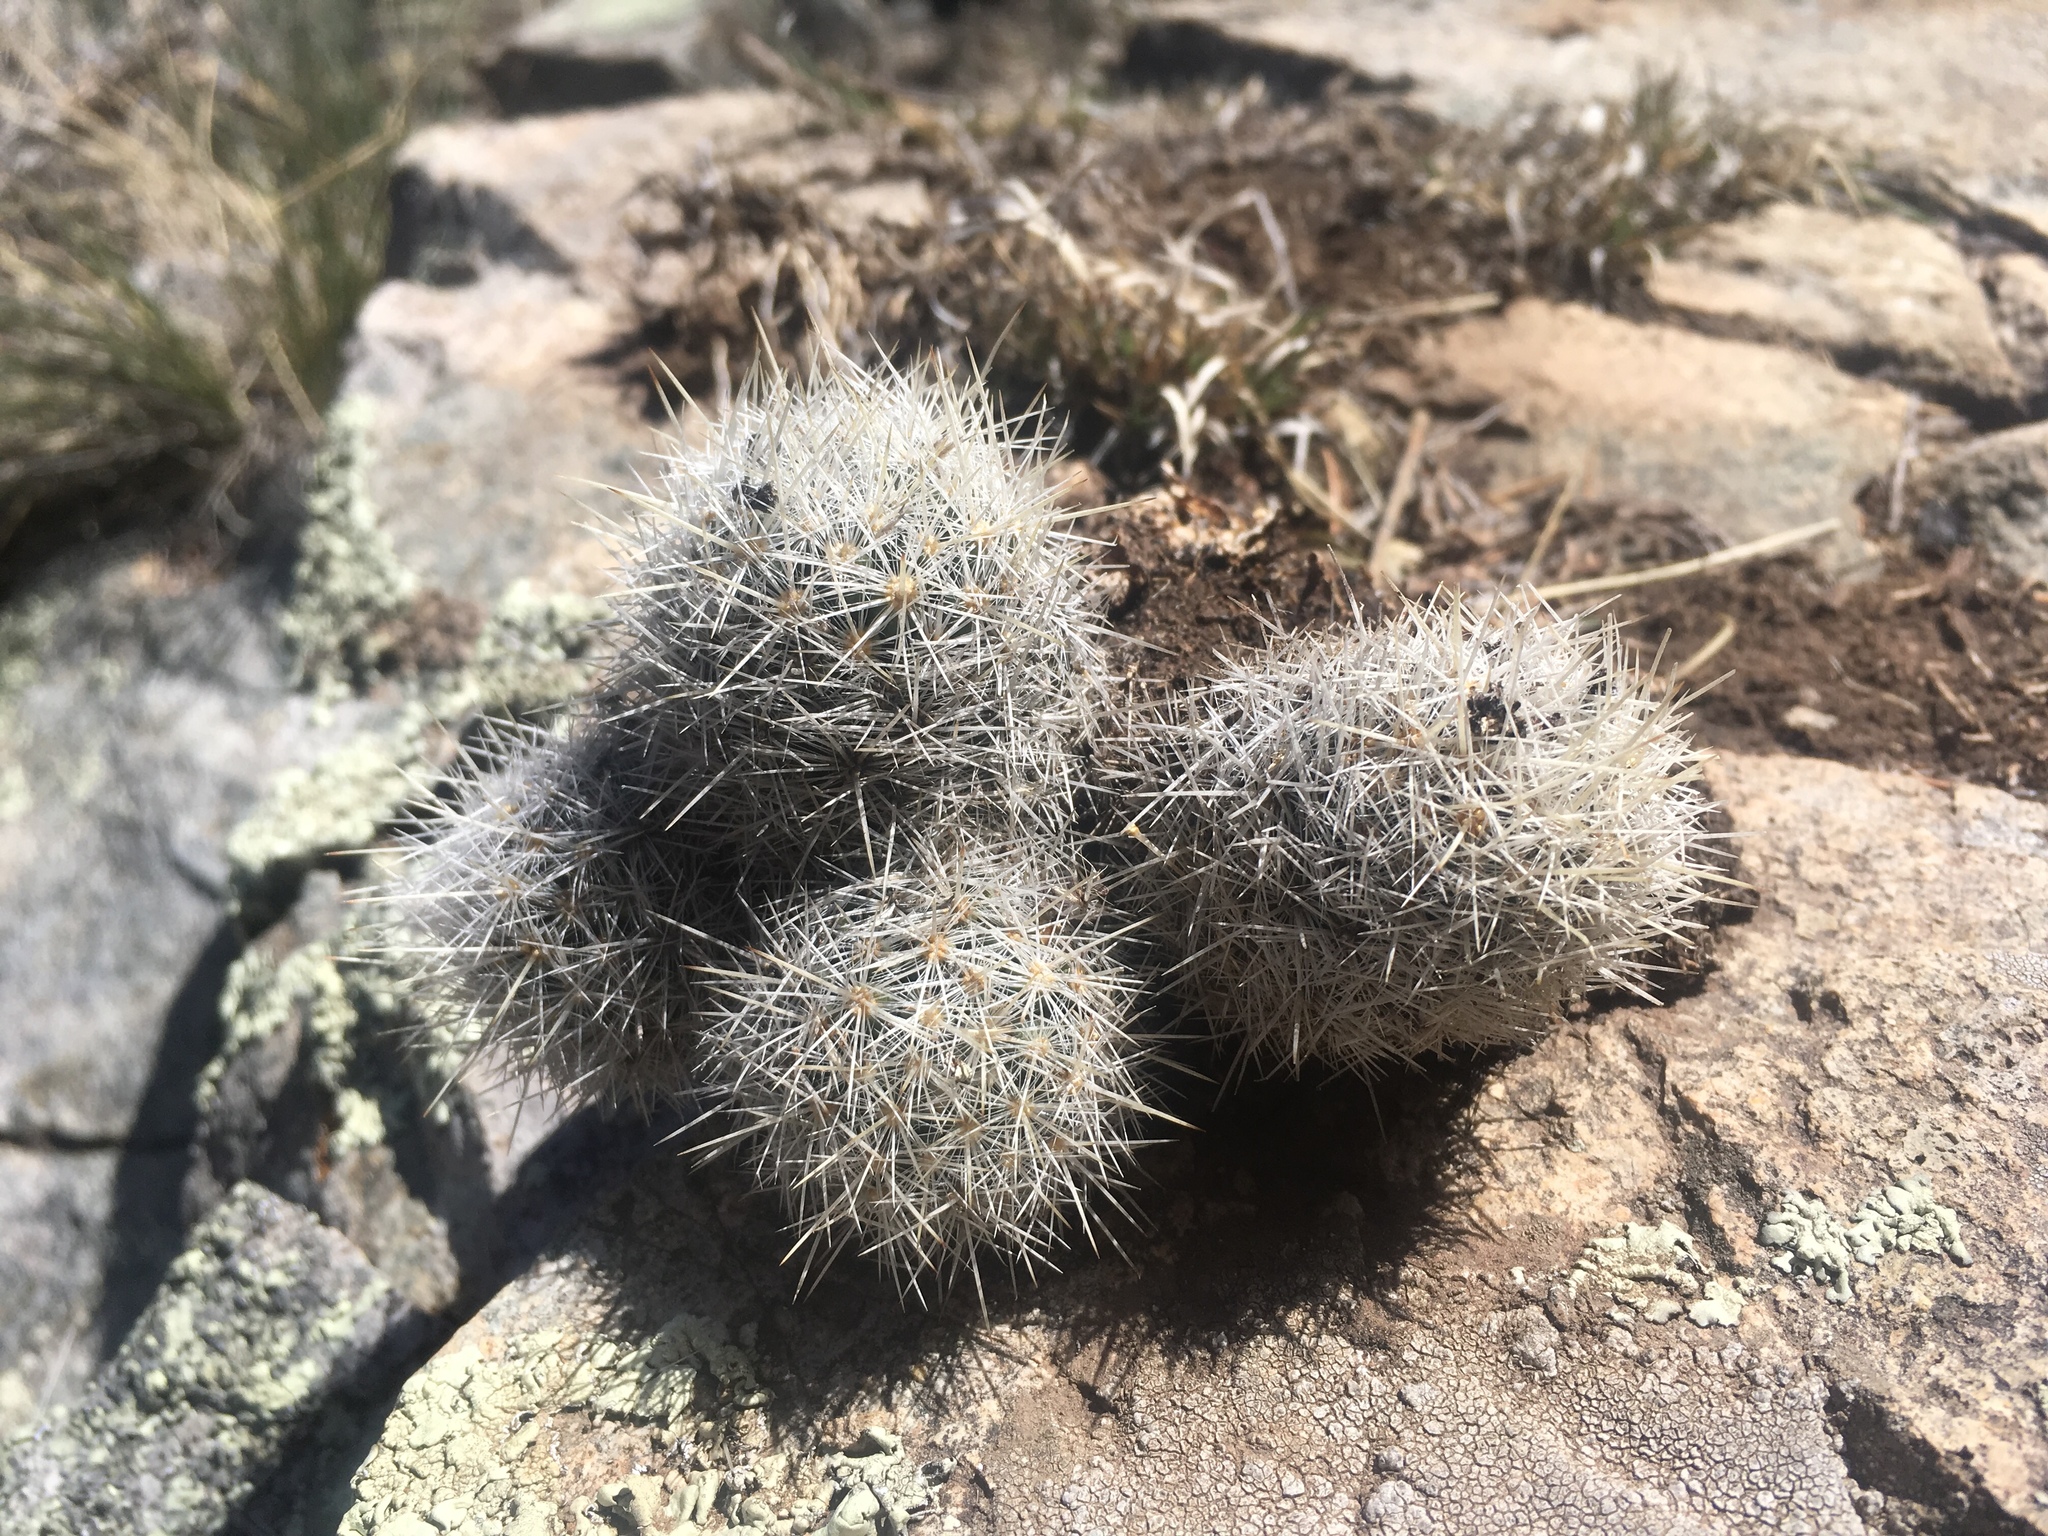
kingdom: Plantae
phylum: Tracheophyta
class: Magnoliopsida
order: Caryophyllales
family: Cactaceae
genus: Pelecyphora
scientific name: Pelecyphora sneedii
